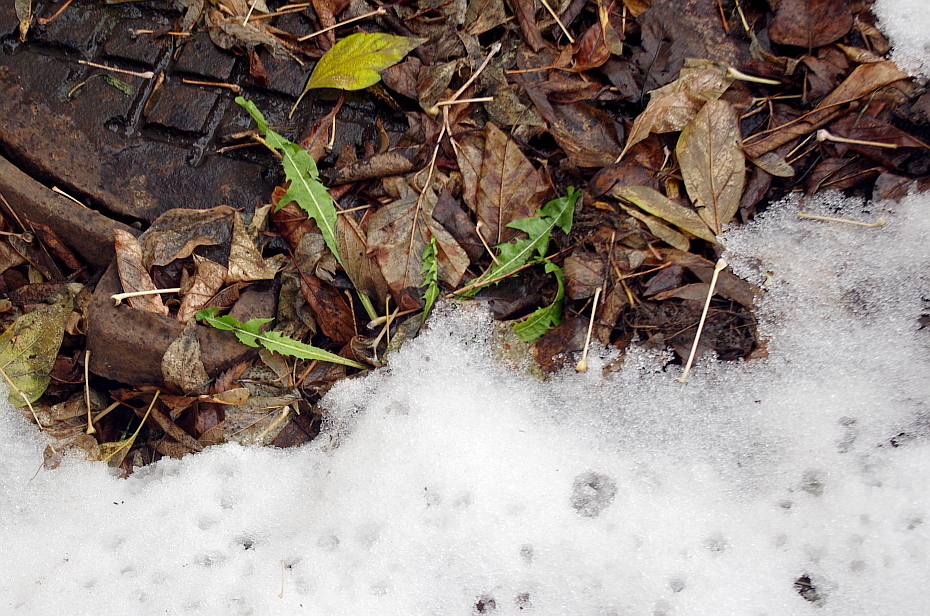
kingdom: Plantae
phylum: Tracheophyta
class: Magnoliopsida
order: Asterales
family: Asteraceae
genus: Taraxacum
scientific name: Taraxacum officinale
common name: Common dandelion
